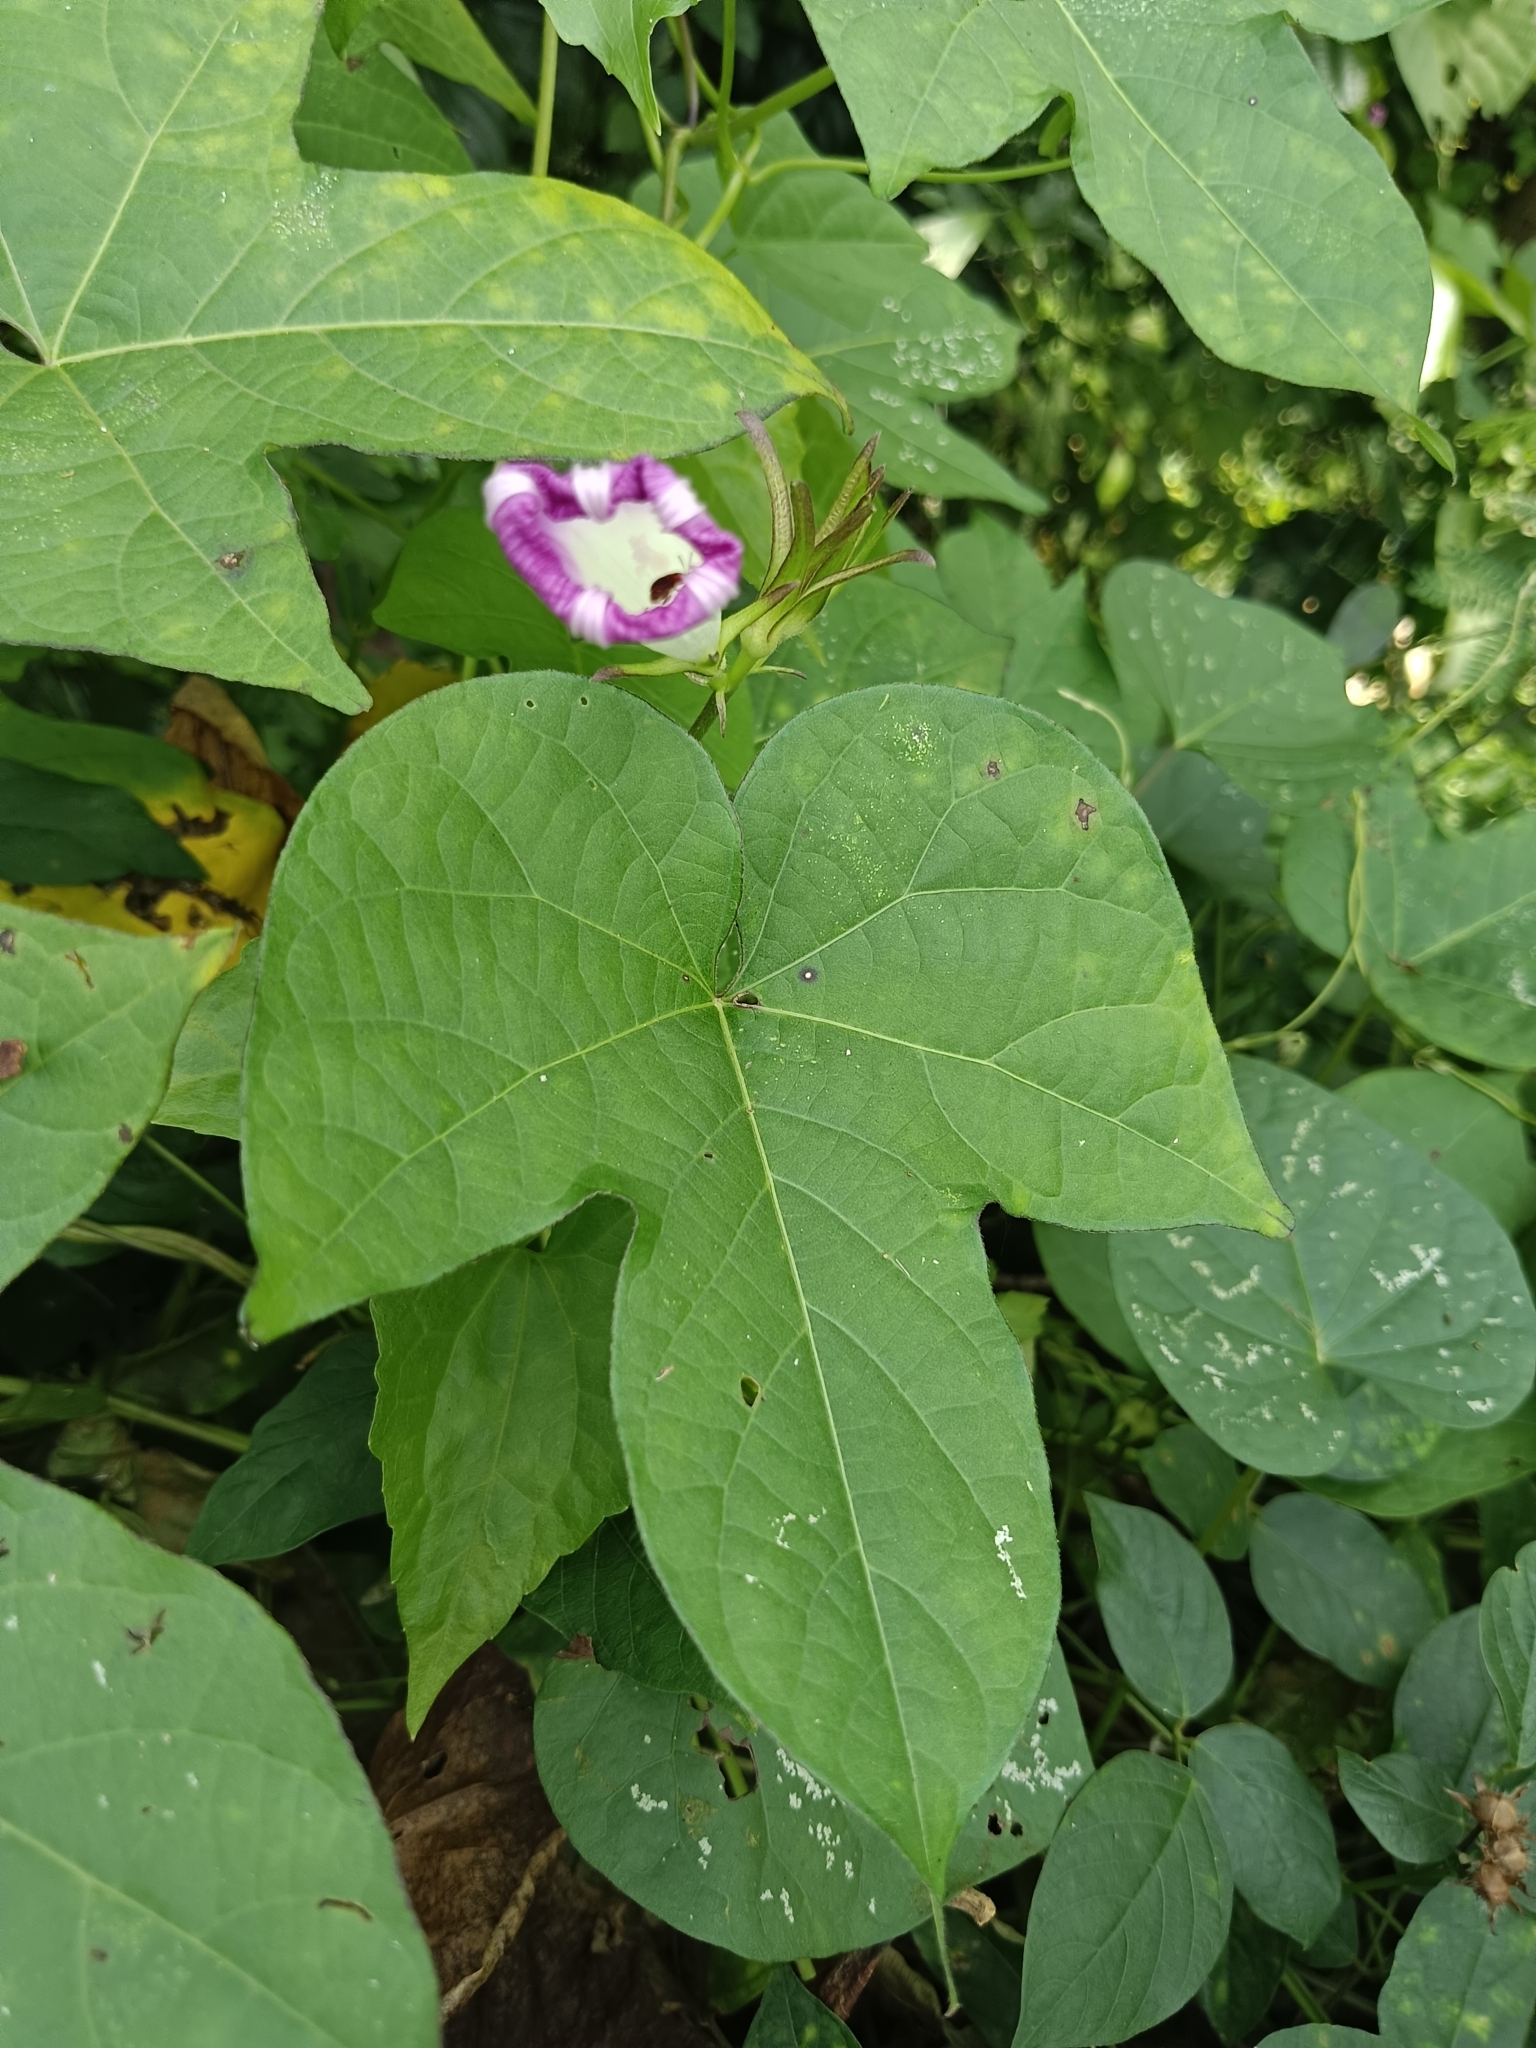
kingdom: Plantae
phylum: Tracheophyta
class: Magnoliopsida
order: Solanales
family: Convolvulaceae
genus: Ipomoea
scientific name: Ipomoea nil
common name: Japanese morning-glory
